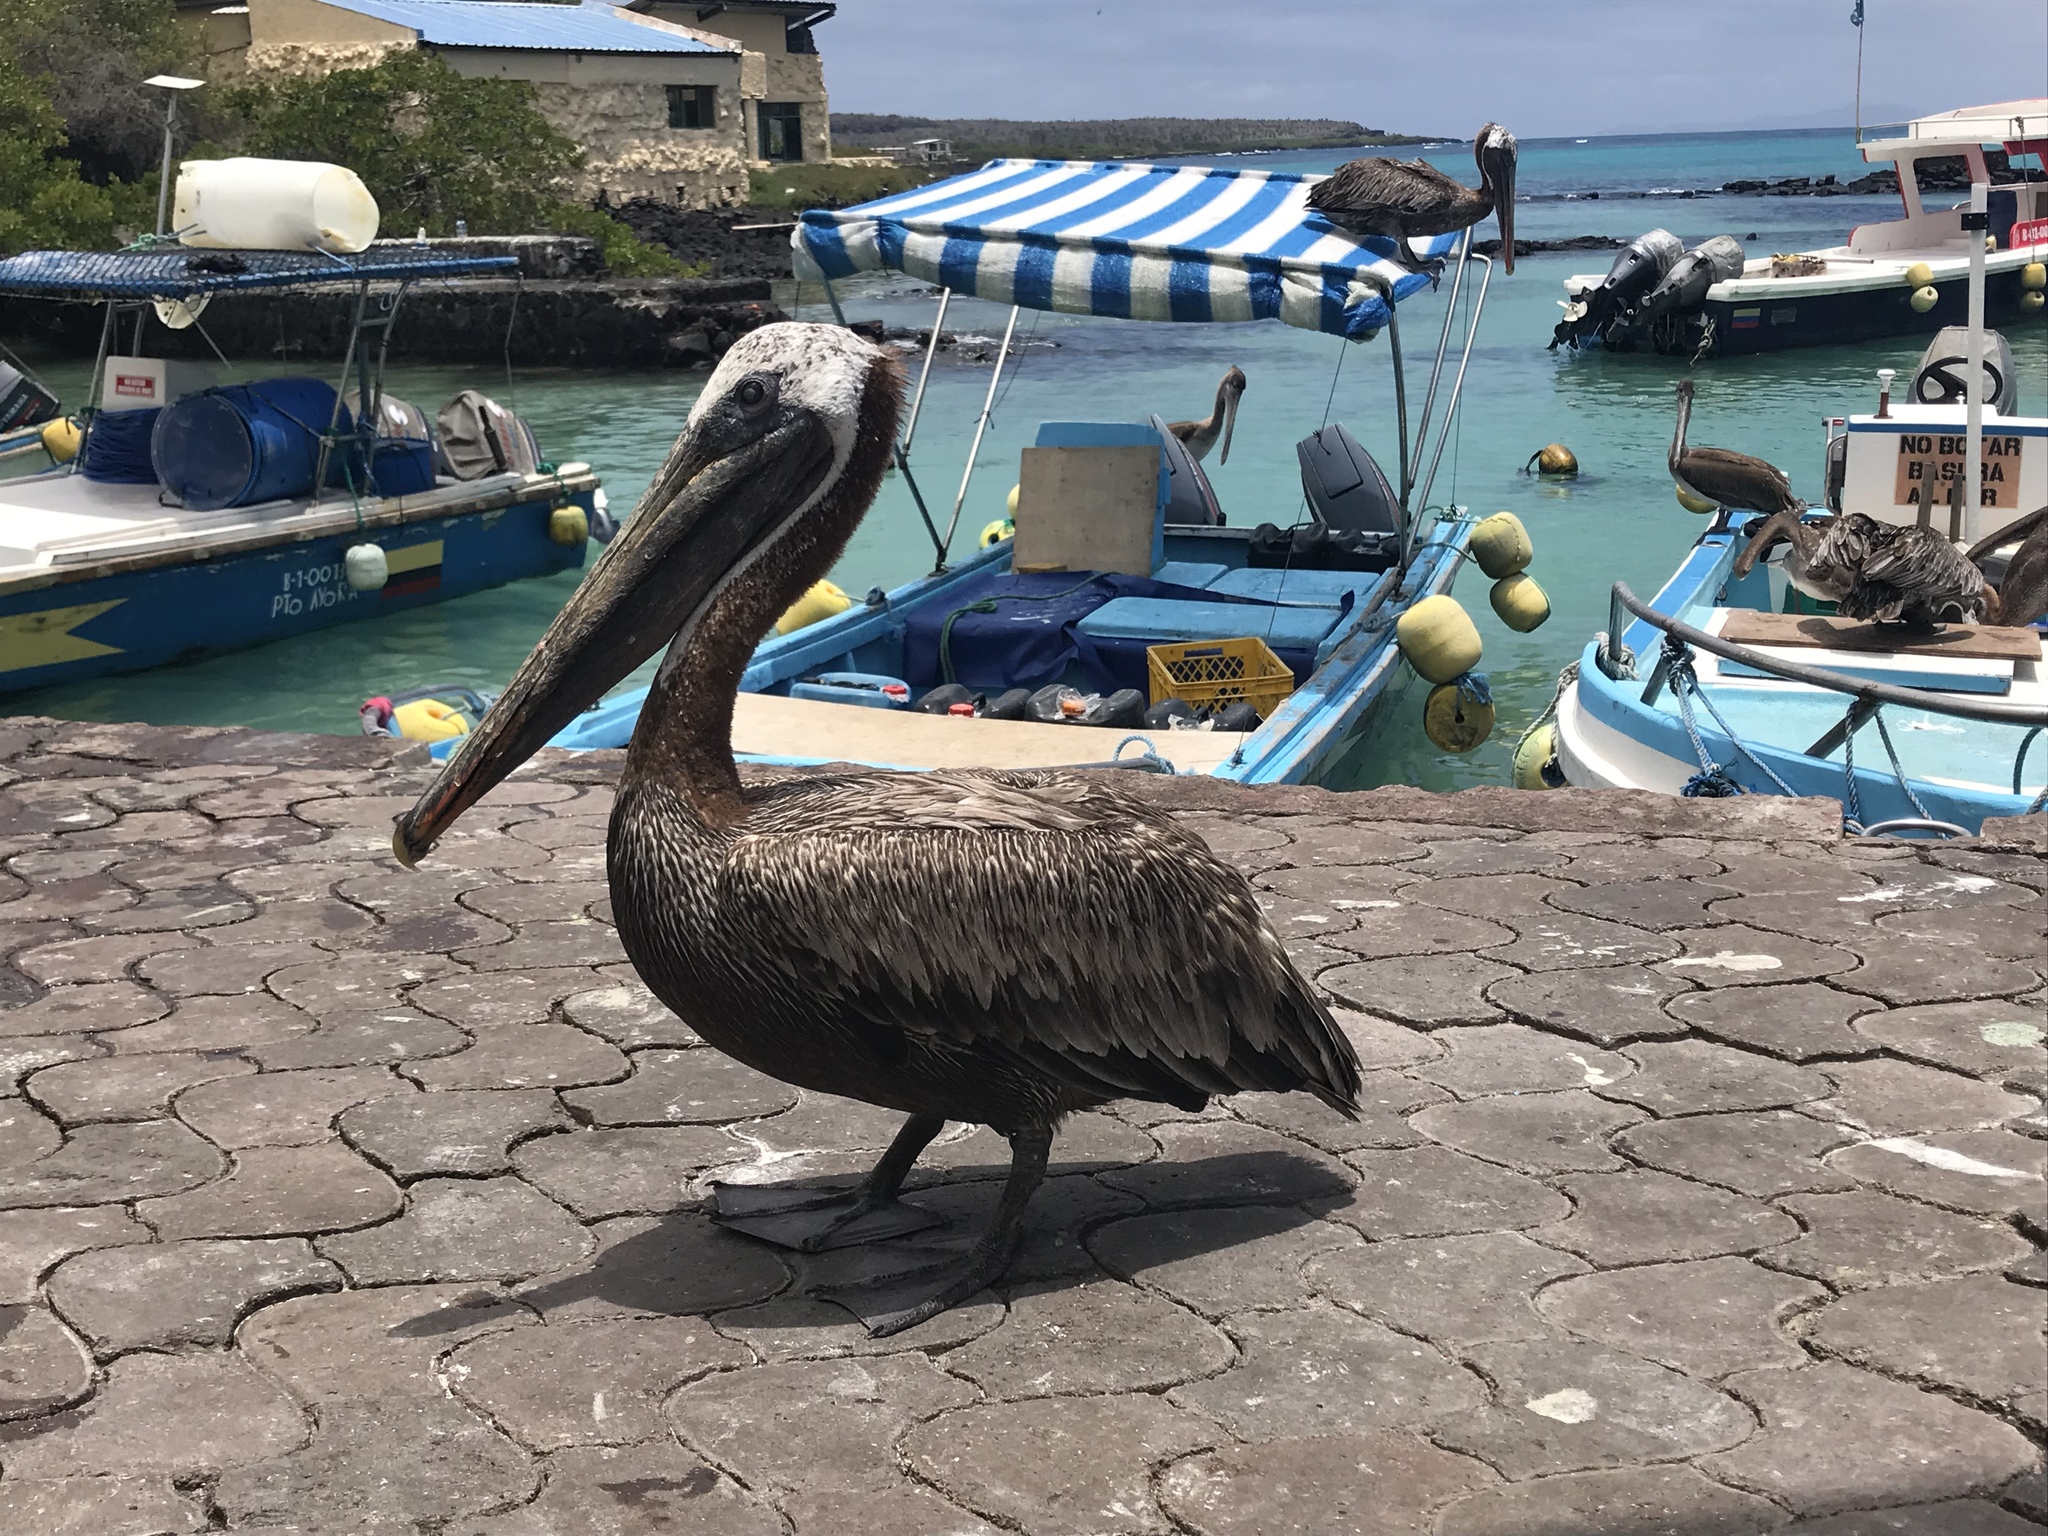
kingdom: Animalia
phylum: Chordata
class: Aves
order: Pelecaniformes
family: Pelecanidae
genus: Pelecanus
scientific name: Pelecanus occidentalis
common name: Brown pelican
